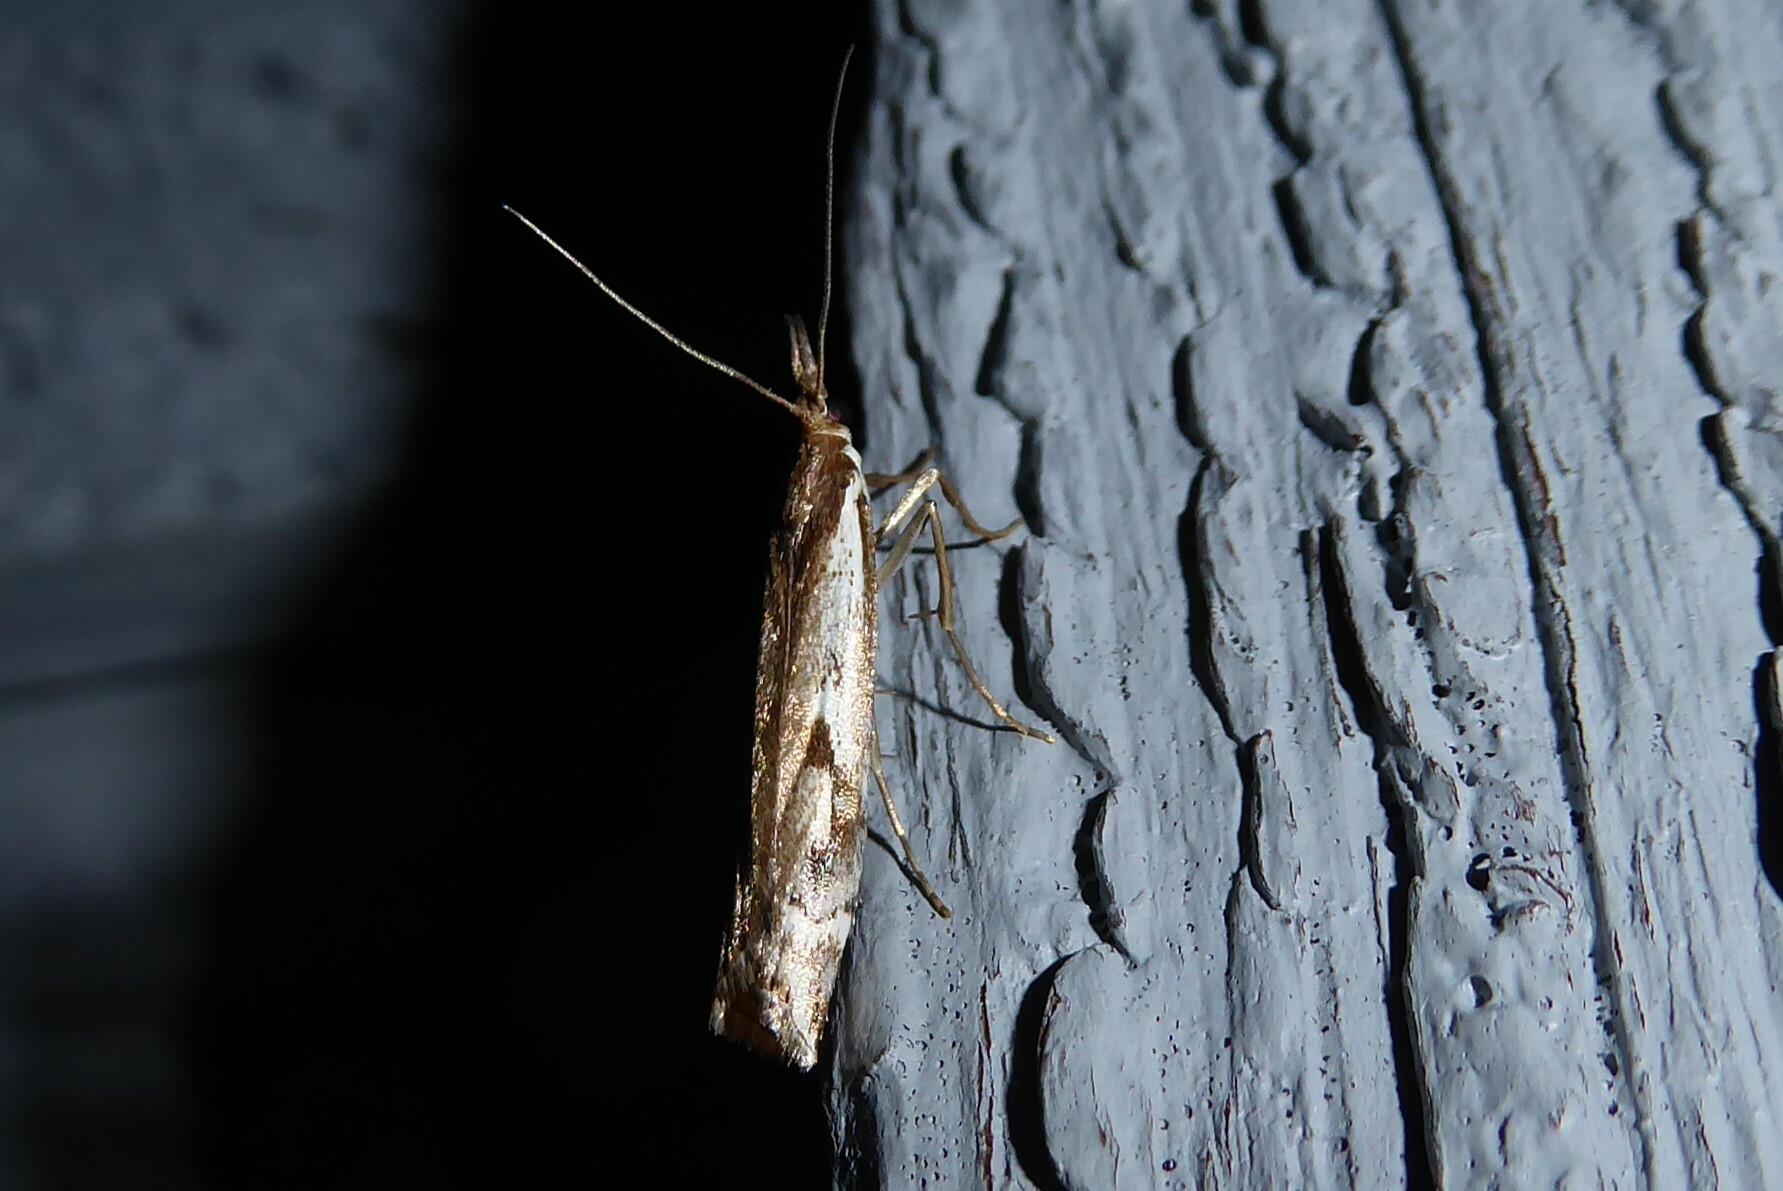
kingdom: Animalia
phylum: Arthropoda
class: Insecta
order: Lepidoptera
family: Crambidae
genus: Orocrambus
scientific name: Orocrambus vulgaris
